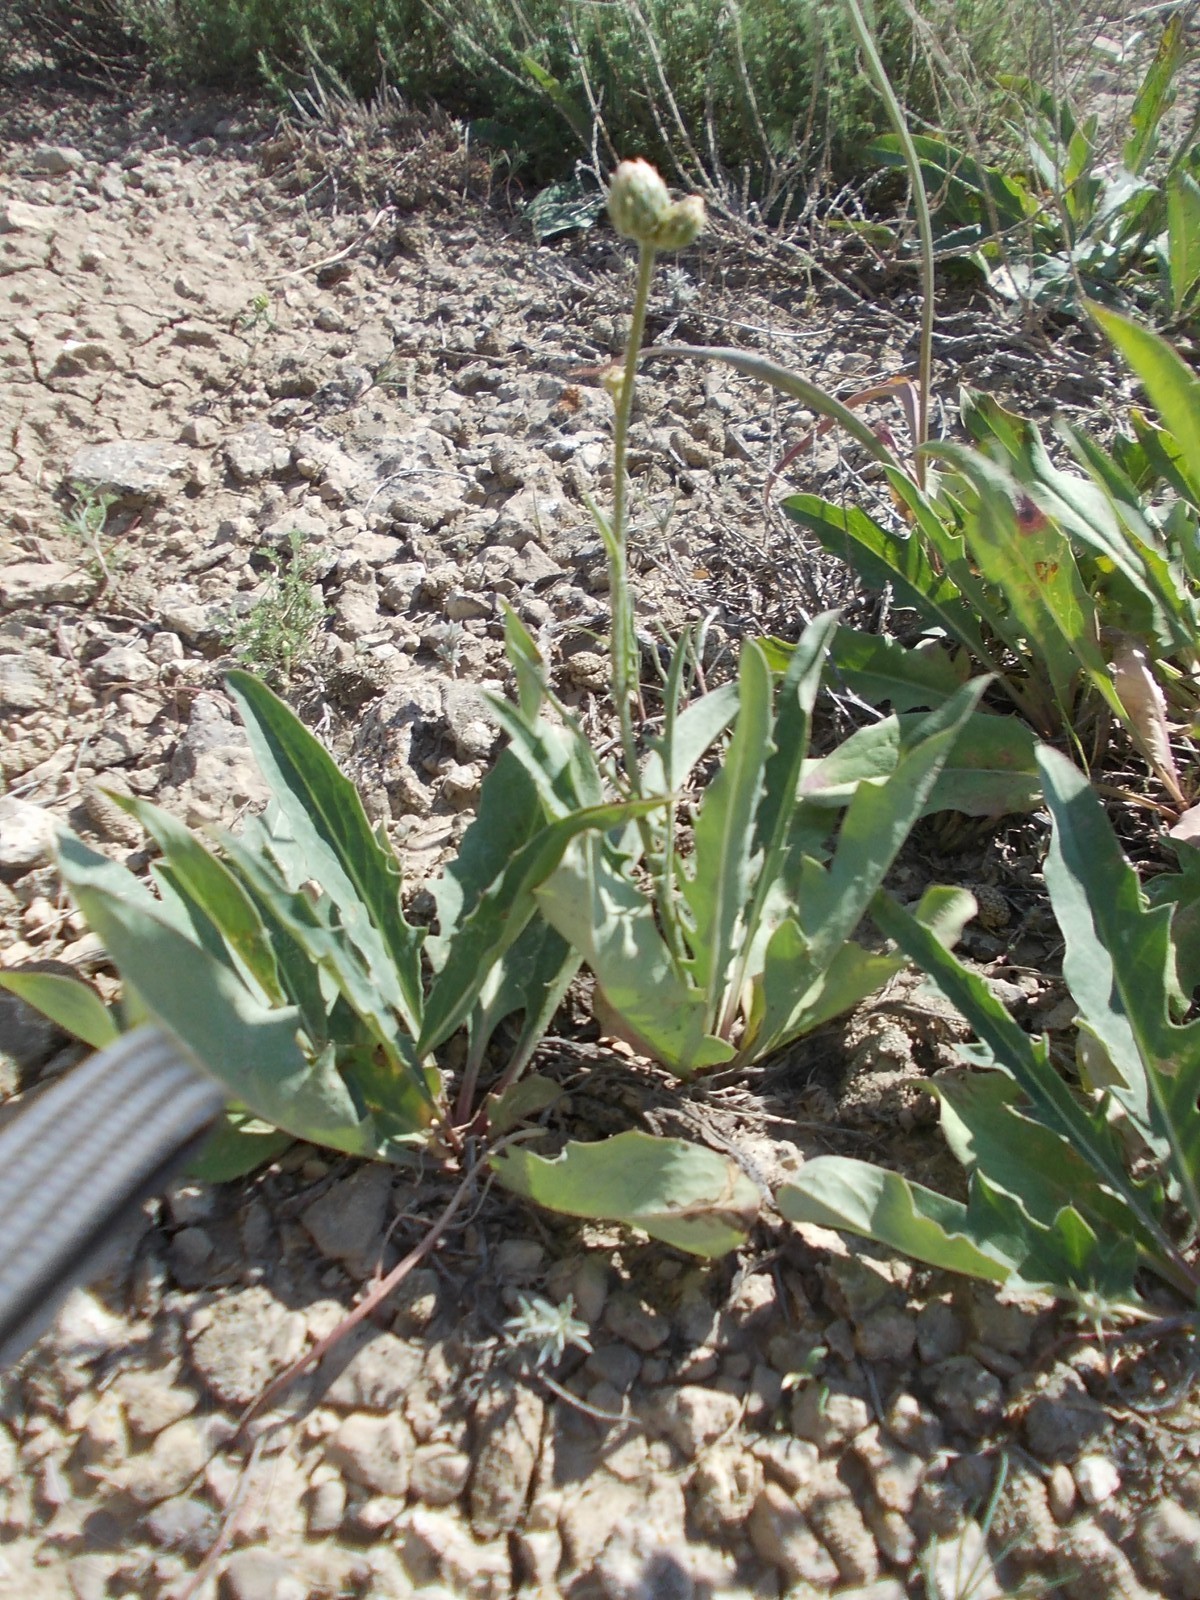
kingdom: Plantae
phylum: Tracheophyta
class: Magnoliopsida
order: Asterales
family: Asteraceae
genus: Klasea
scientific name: Klasea cardunculus
